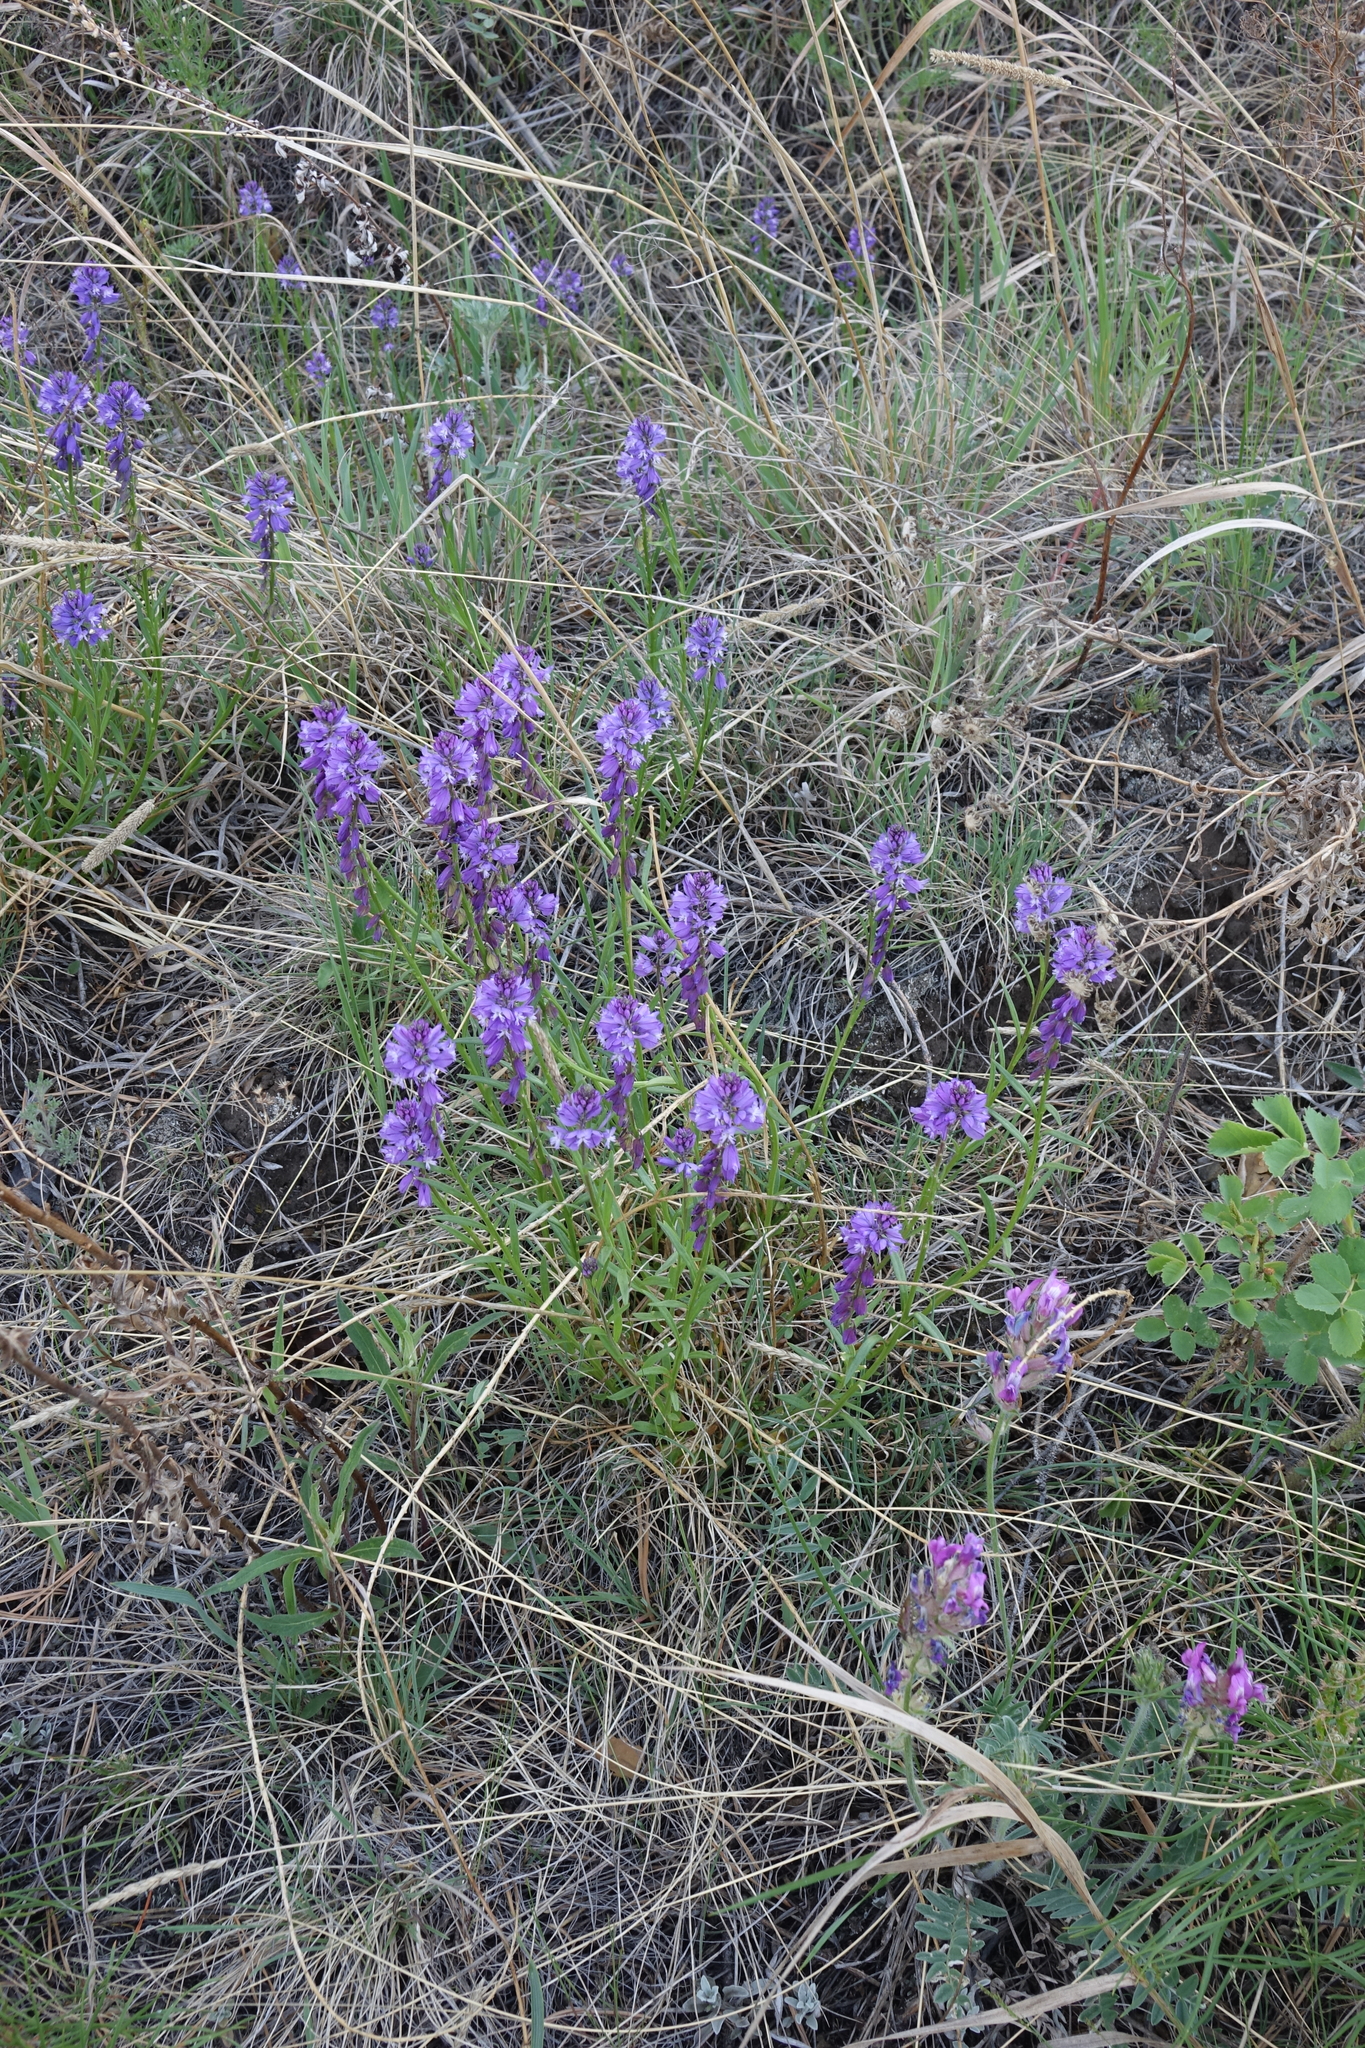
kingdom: Plantae
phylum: Tracheophyta
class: Magnoliopsida
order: Fabales
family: Polygalaceae
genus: Polygala
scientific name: Polygala comosa
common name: Tufted milkwort
